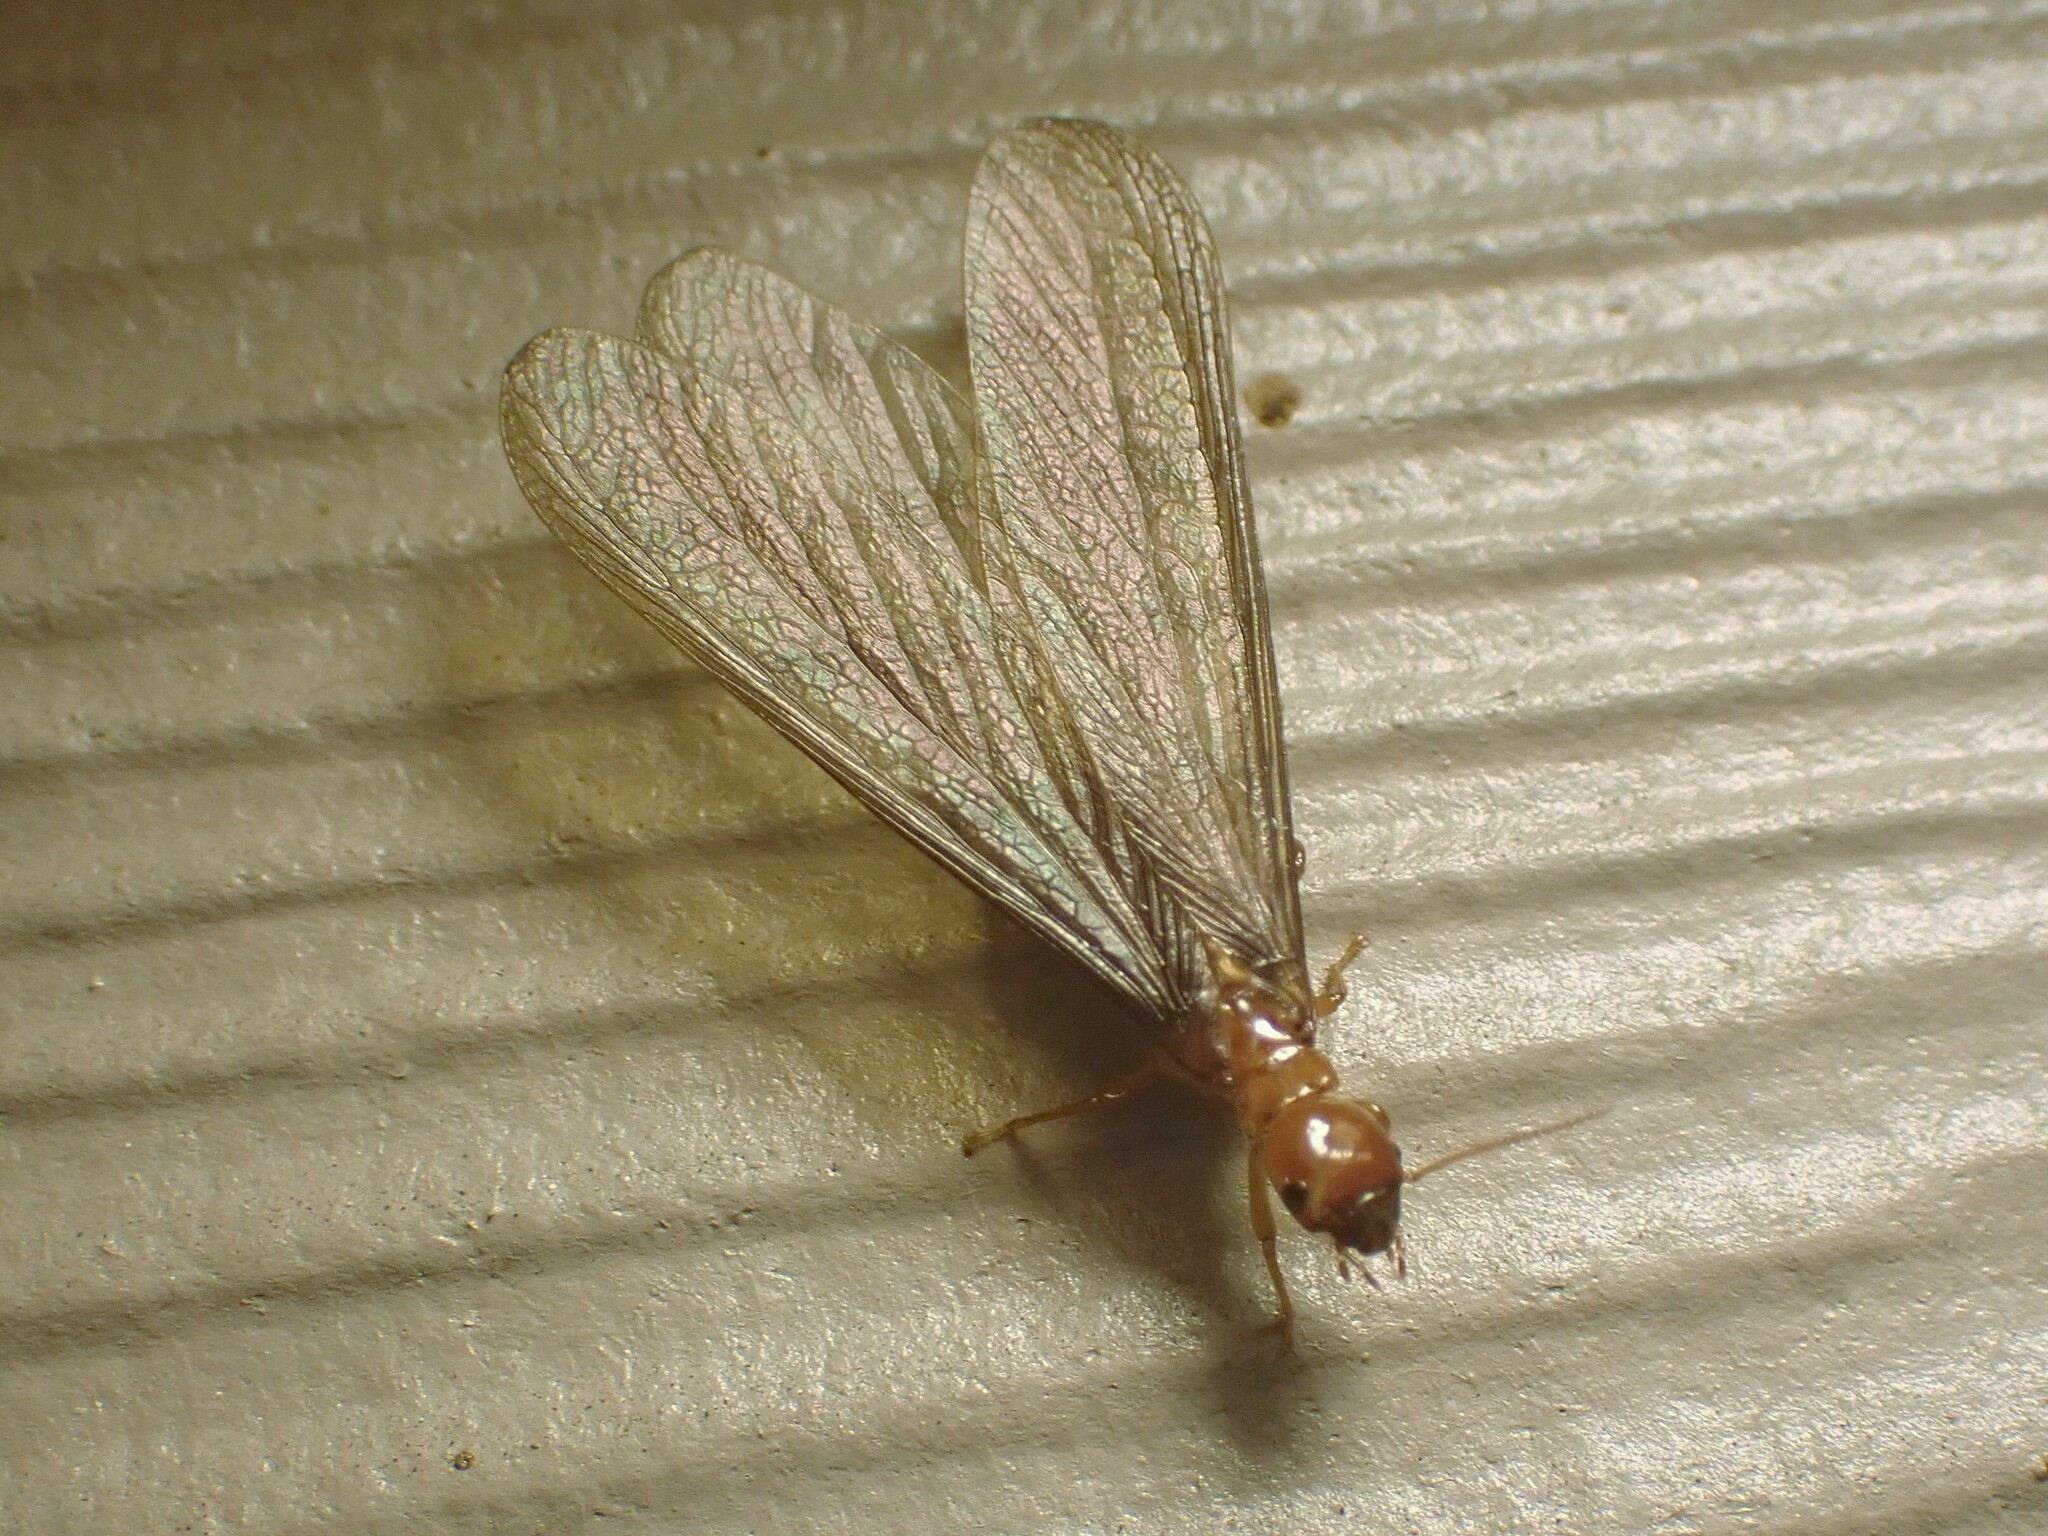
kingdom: Animalia
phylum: Arthropoda
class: Insecta
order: Blattodea
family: Archotermopsidae
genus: Zootermopsis
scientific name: Zootermopsis angusticollis
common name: Rottenwood termite
